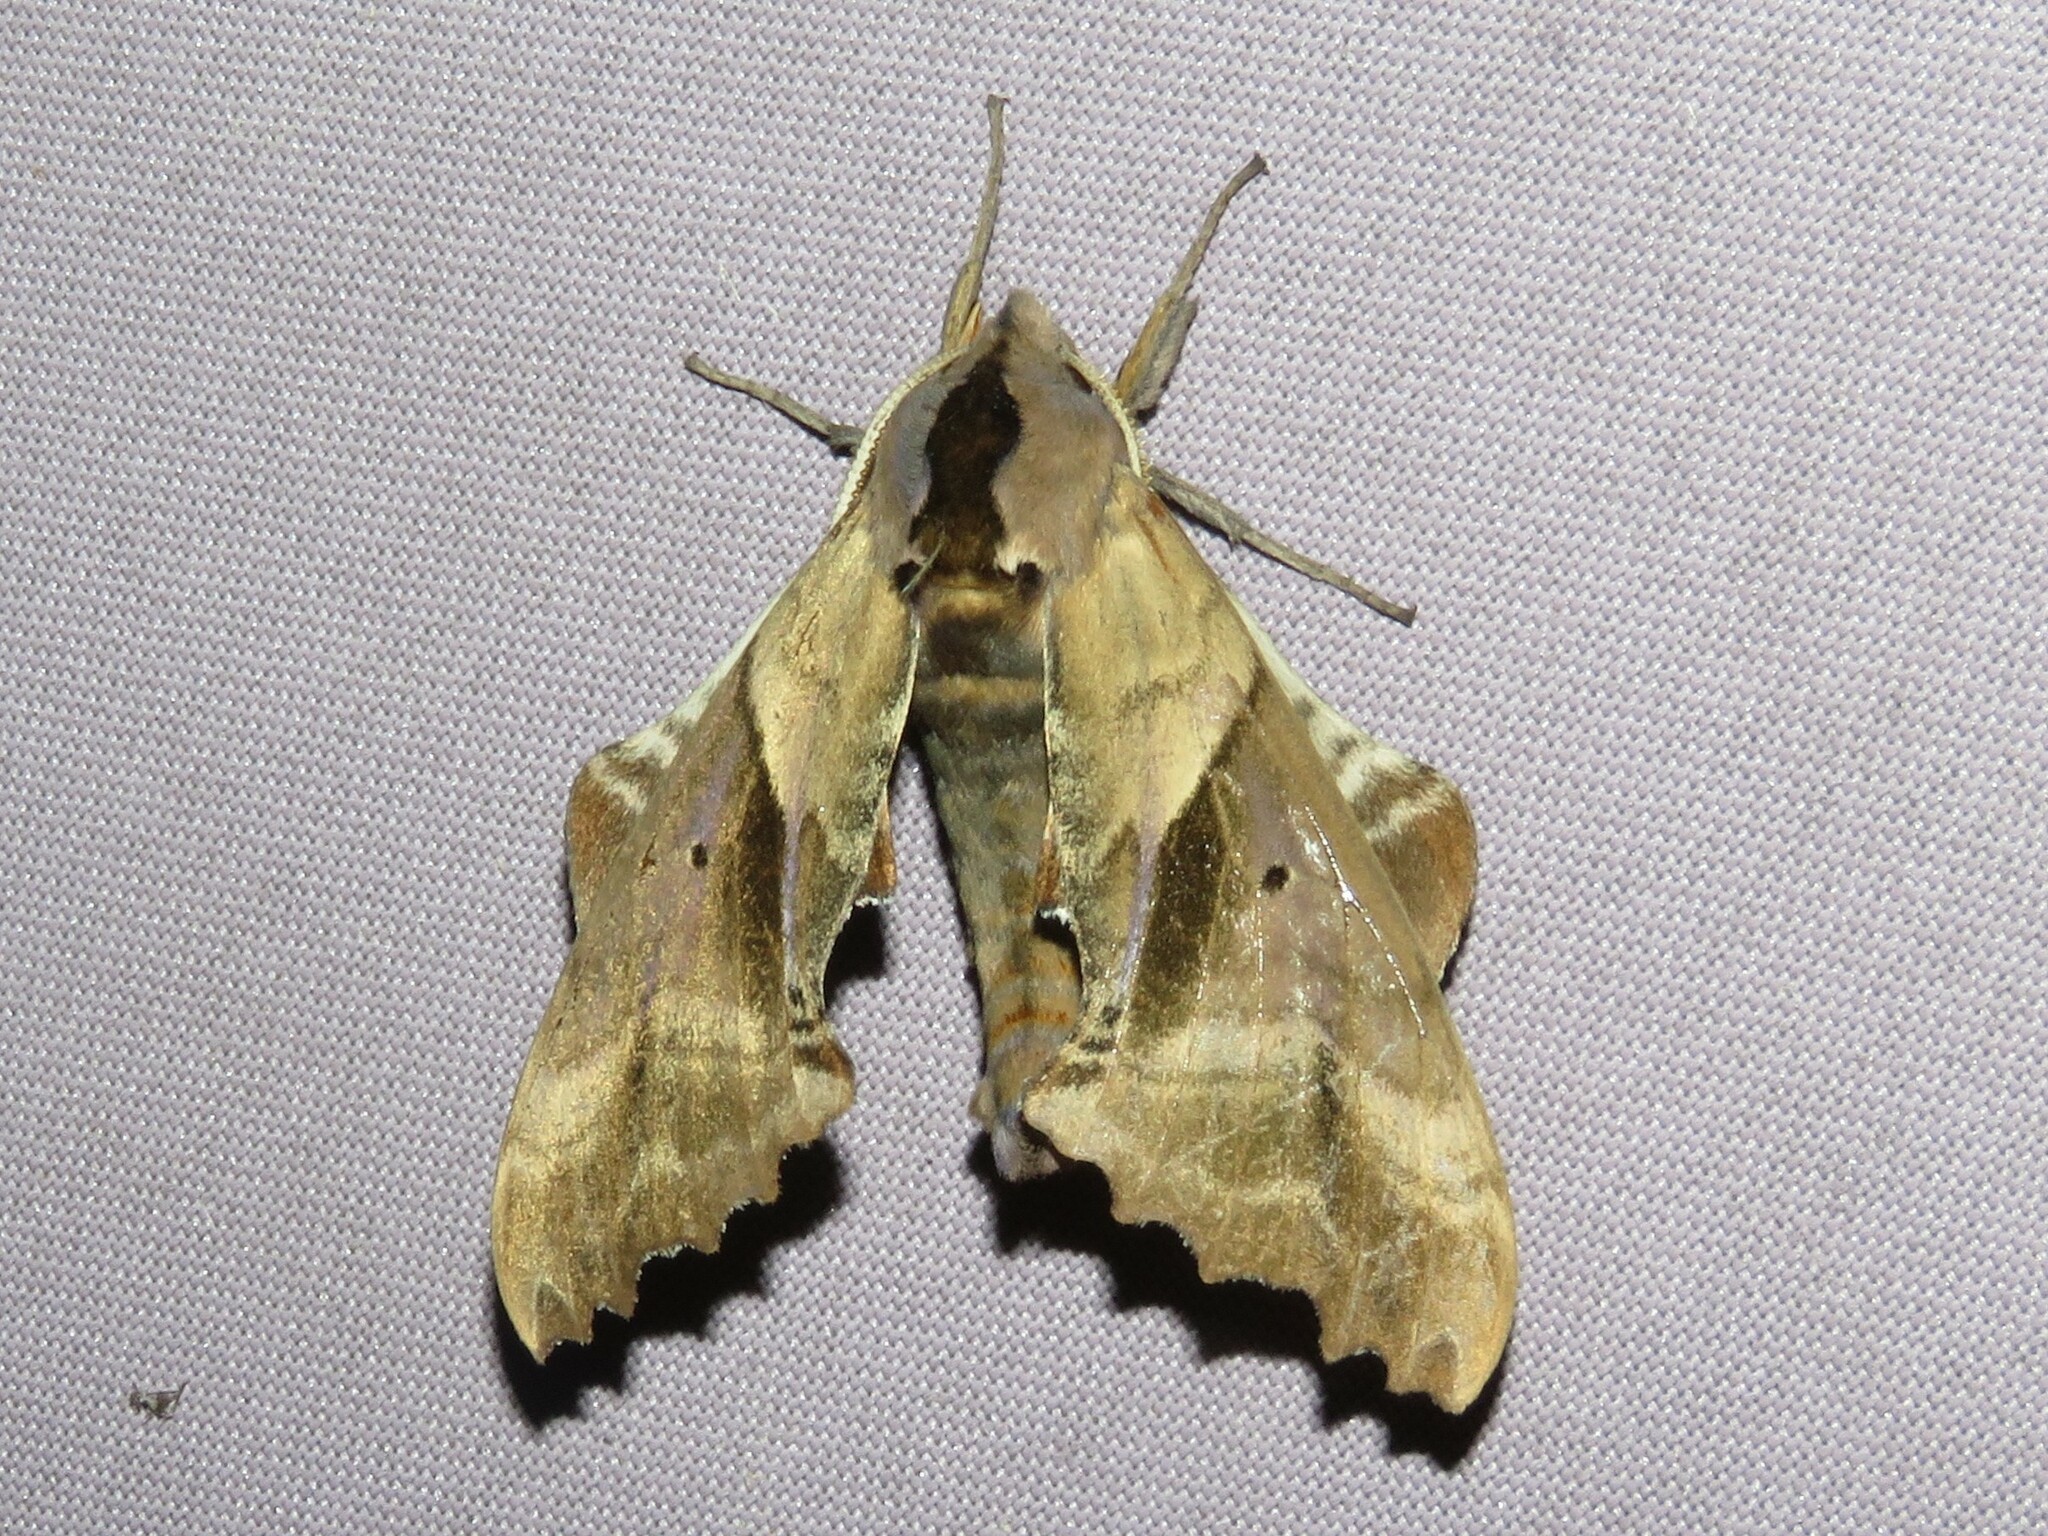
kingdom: Animalia
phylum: Arthropoda
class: Insecta
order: Lepidoptera
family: Sphingidae
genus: Paonias
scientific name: Paonias excaecata
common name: Blind-eyed sphinx
